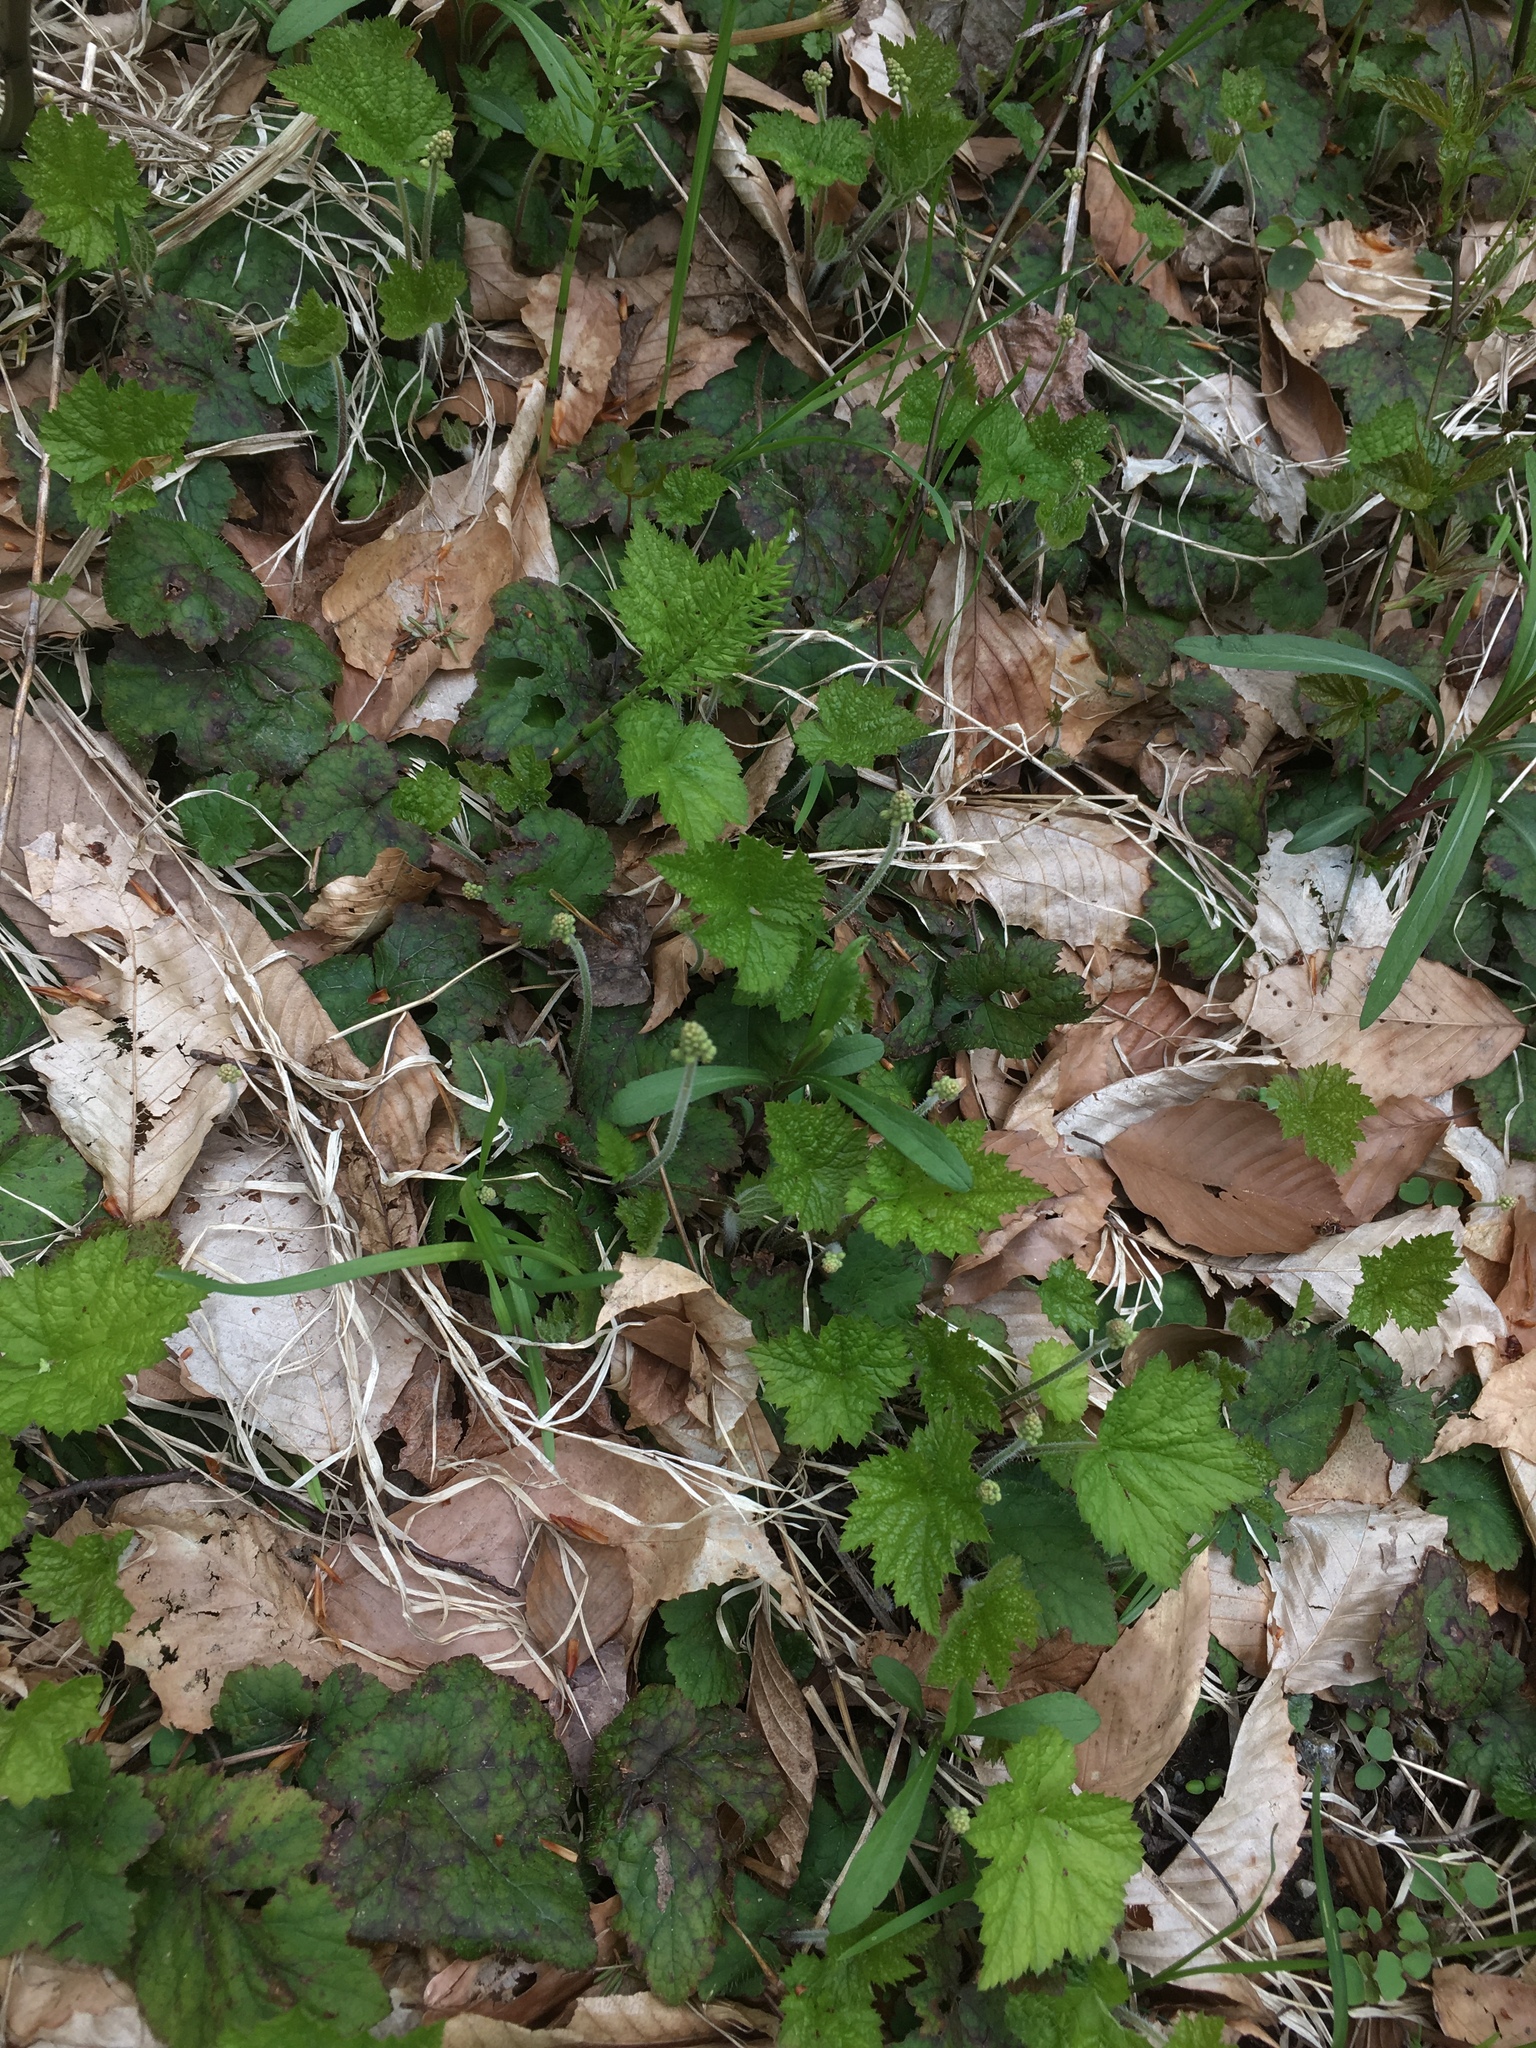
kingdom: Plantae
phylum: Tracheophyta
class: Magnoliopsida
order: Saxifragales
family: Saxifragaceae
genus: Tiarella
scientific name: Tiarella stolonifera
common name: Stoloniferous foamflower
